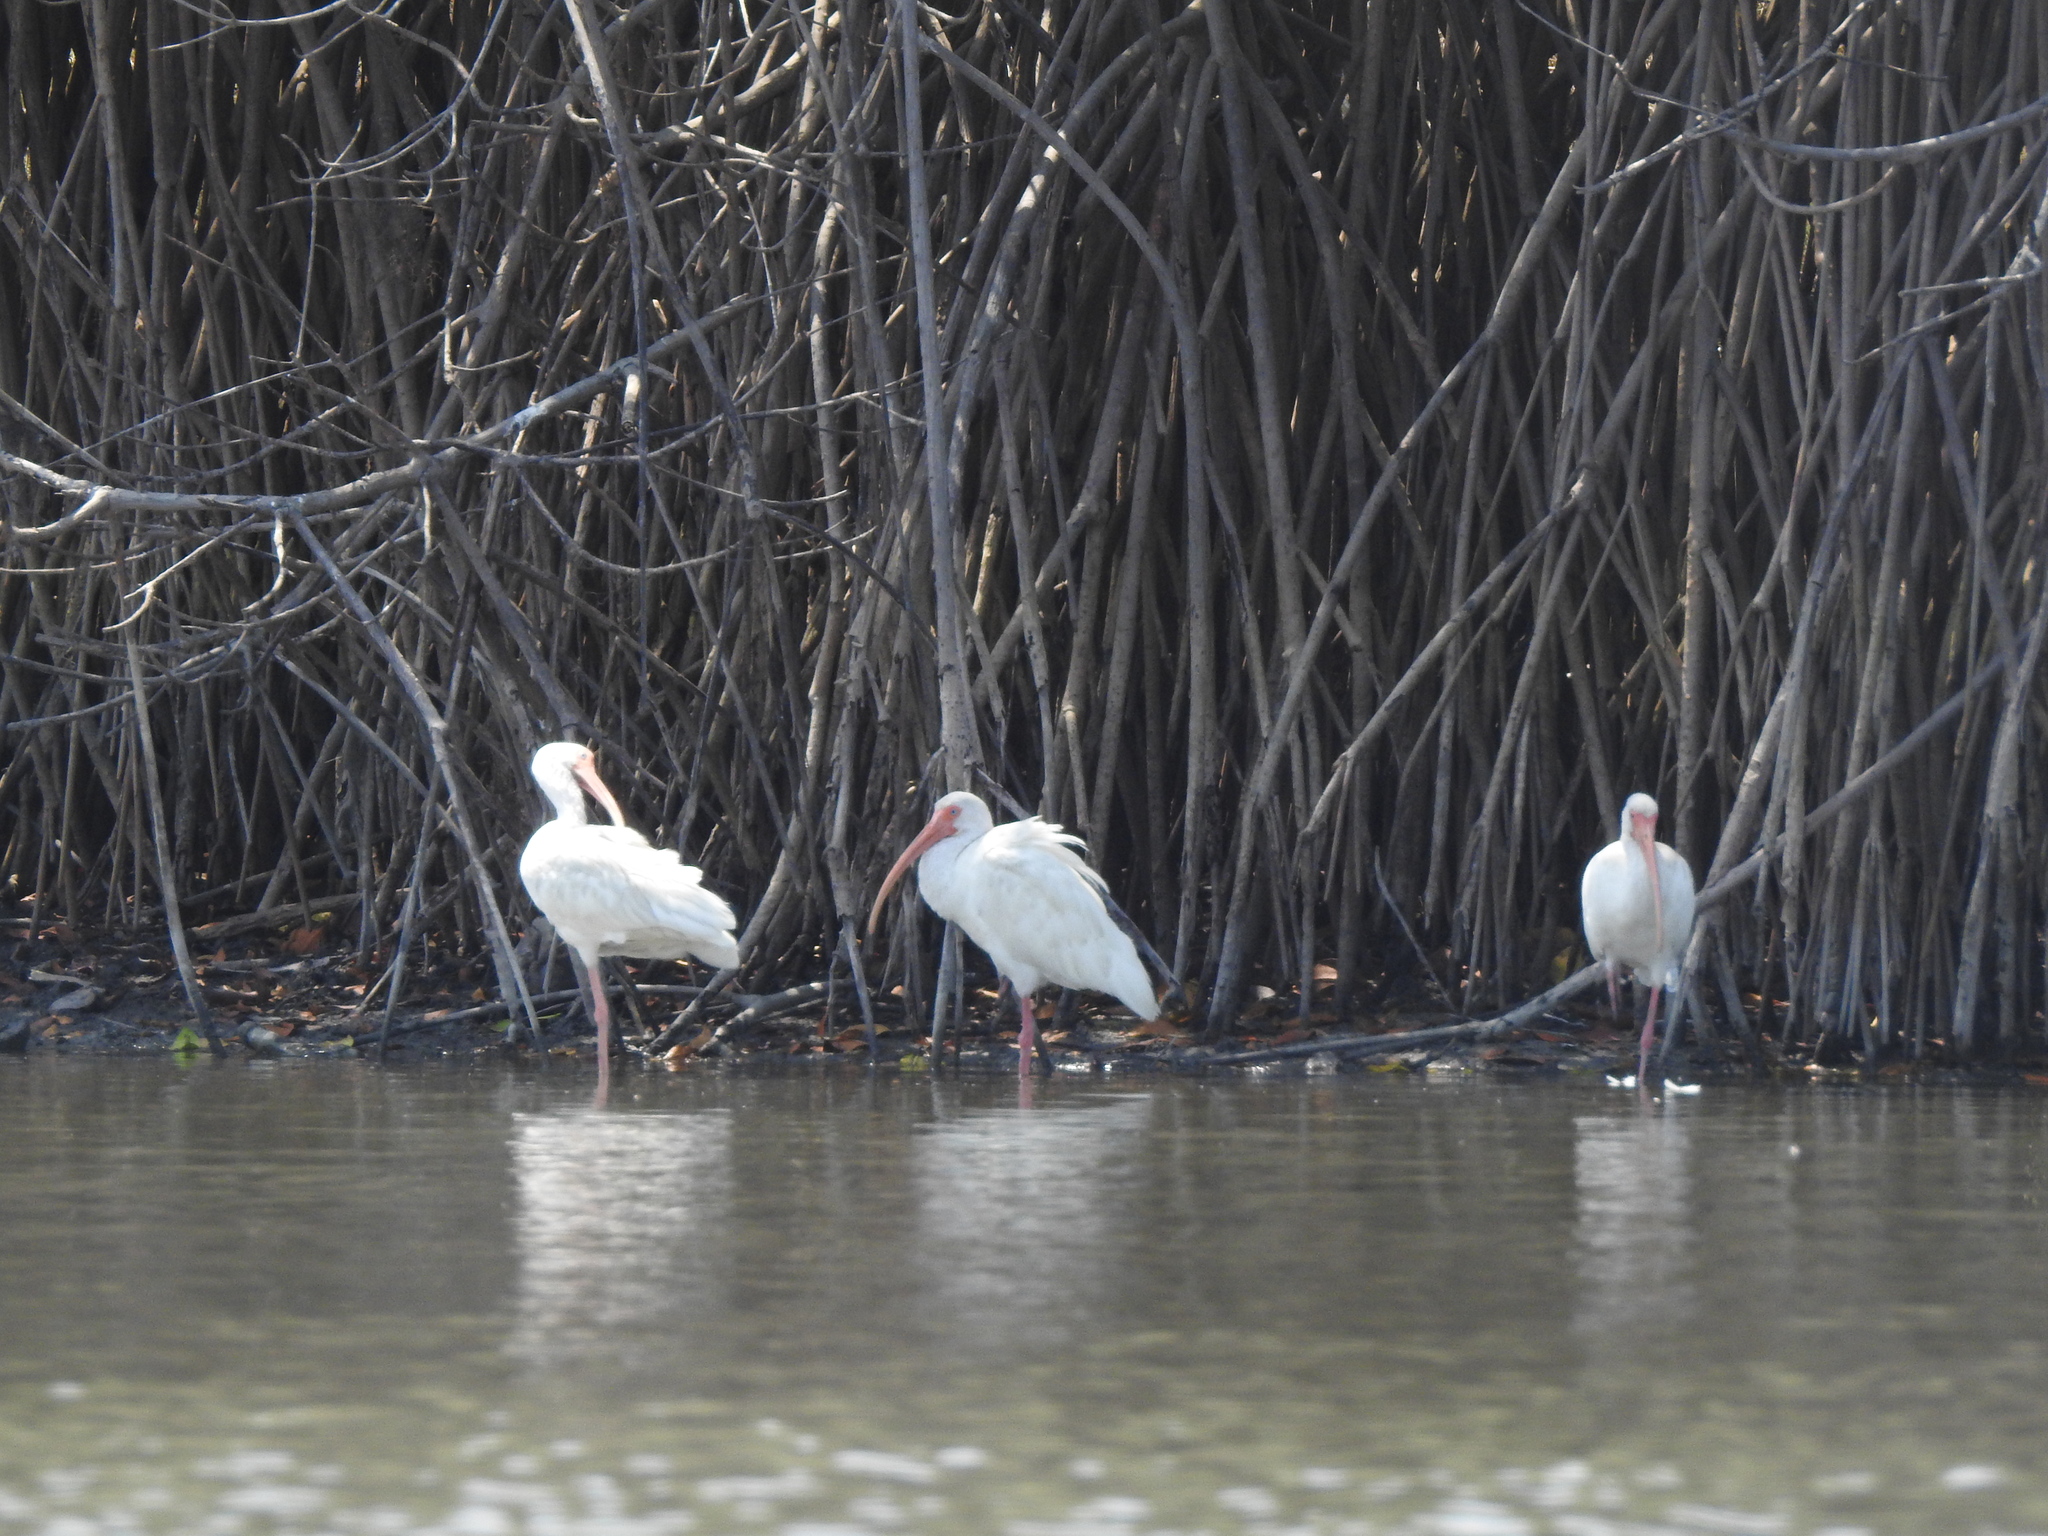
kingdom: Animalia
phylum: Chordata
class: Aves
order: Pelecaniformes
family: Threskiornithidae
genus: Eudocimus
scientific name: Eudocimus albus
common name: White ibis
